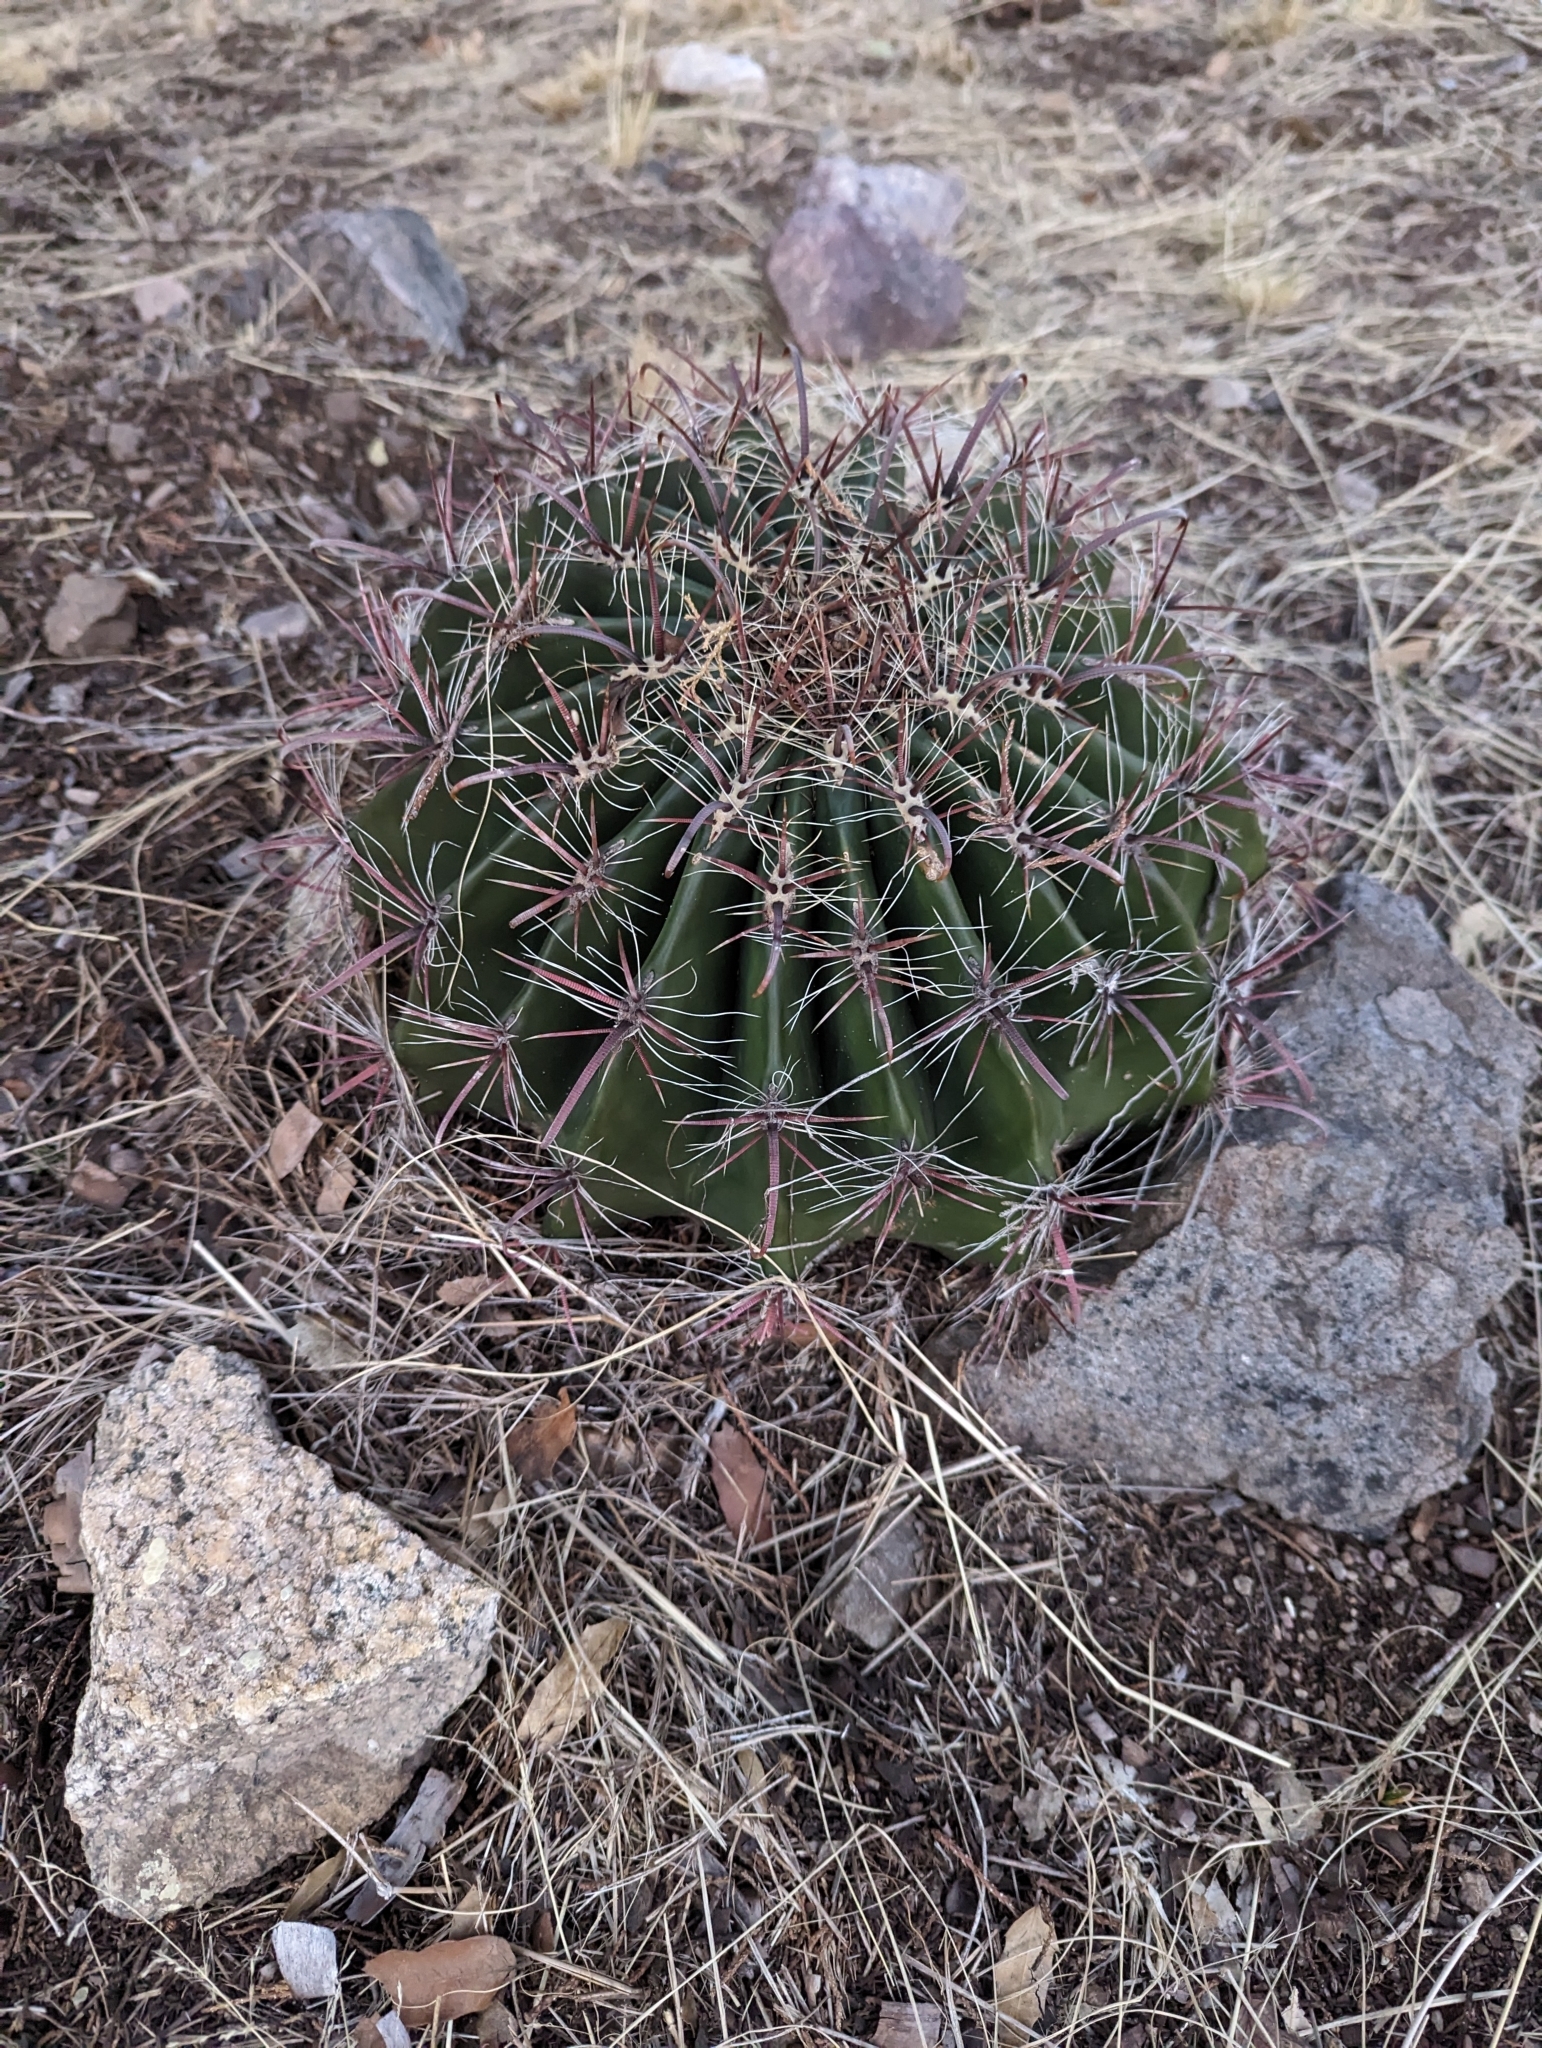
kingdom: Plantae
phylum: Tracheophyta
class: Magnoliopsida
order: Caryophyllales
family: Cactaceae
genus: Ferocactus
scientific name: Ferocactus wislizeni
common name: Candy barrel cactus
